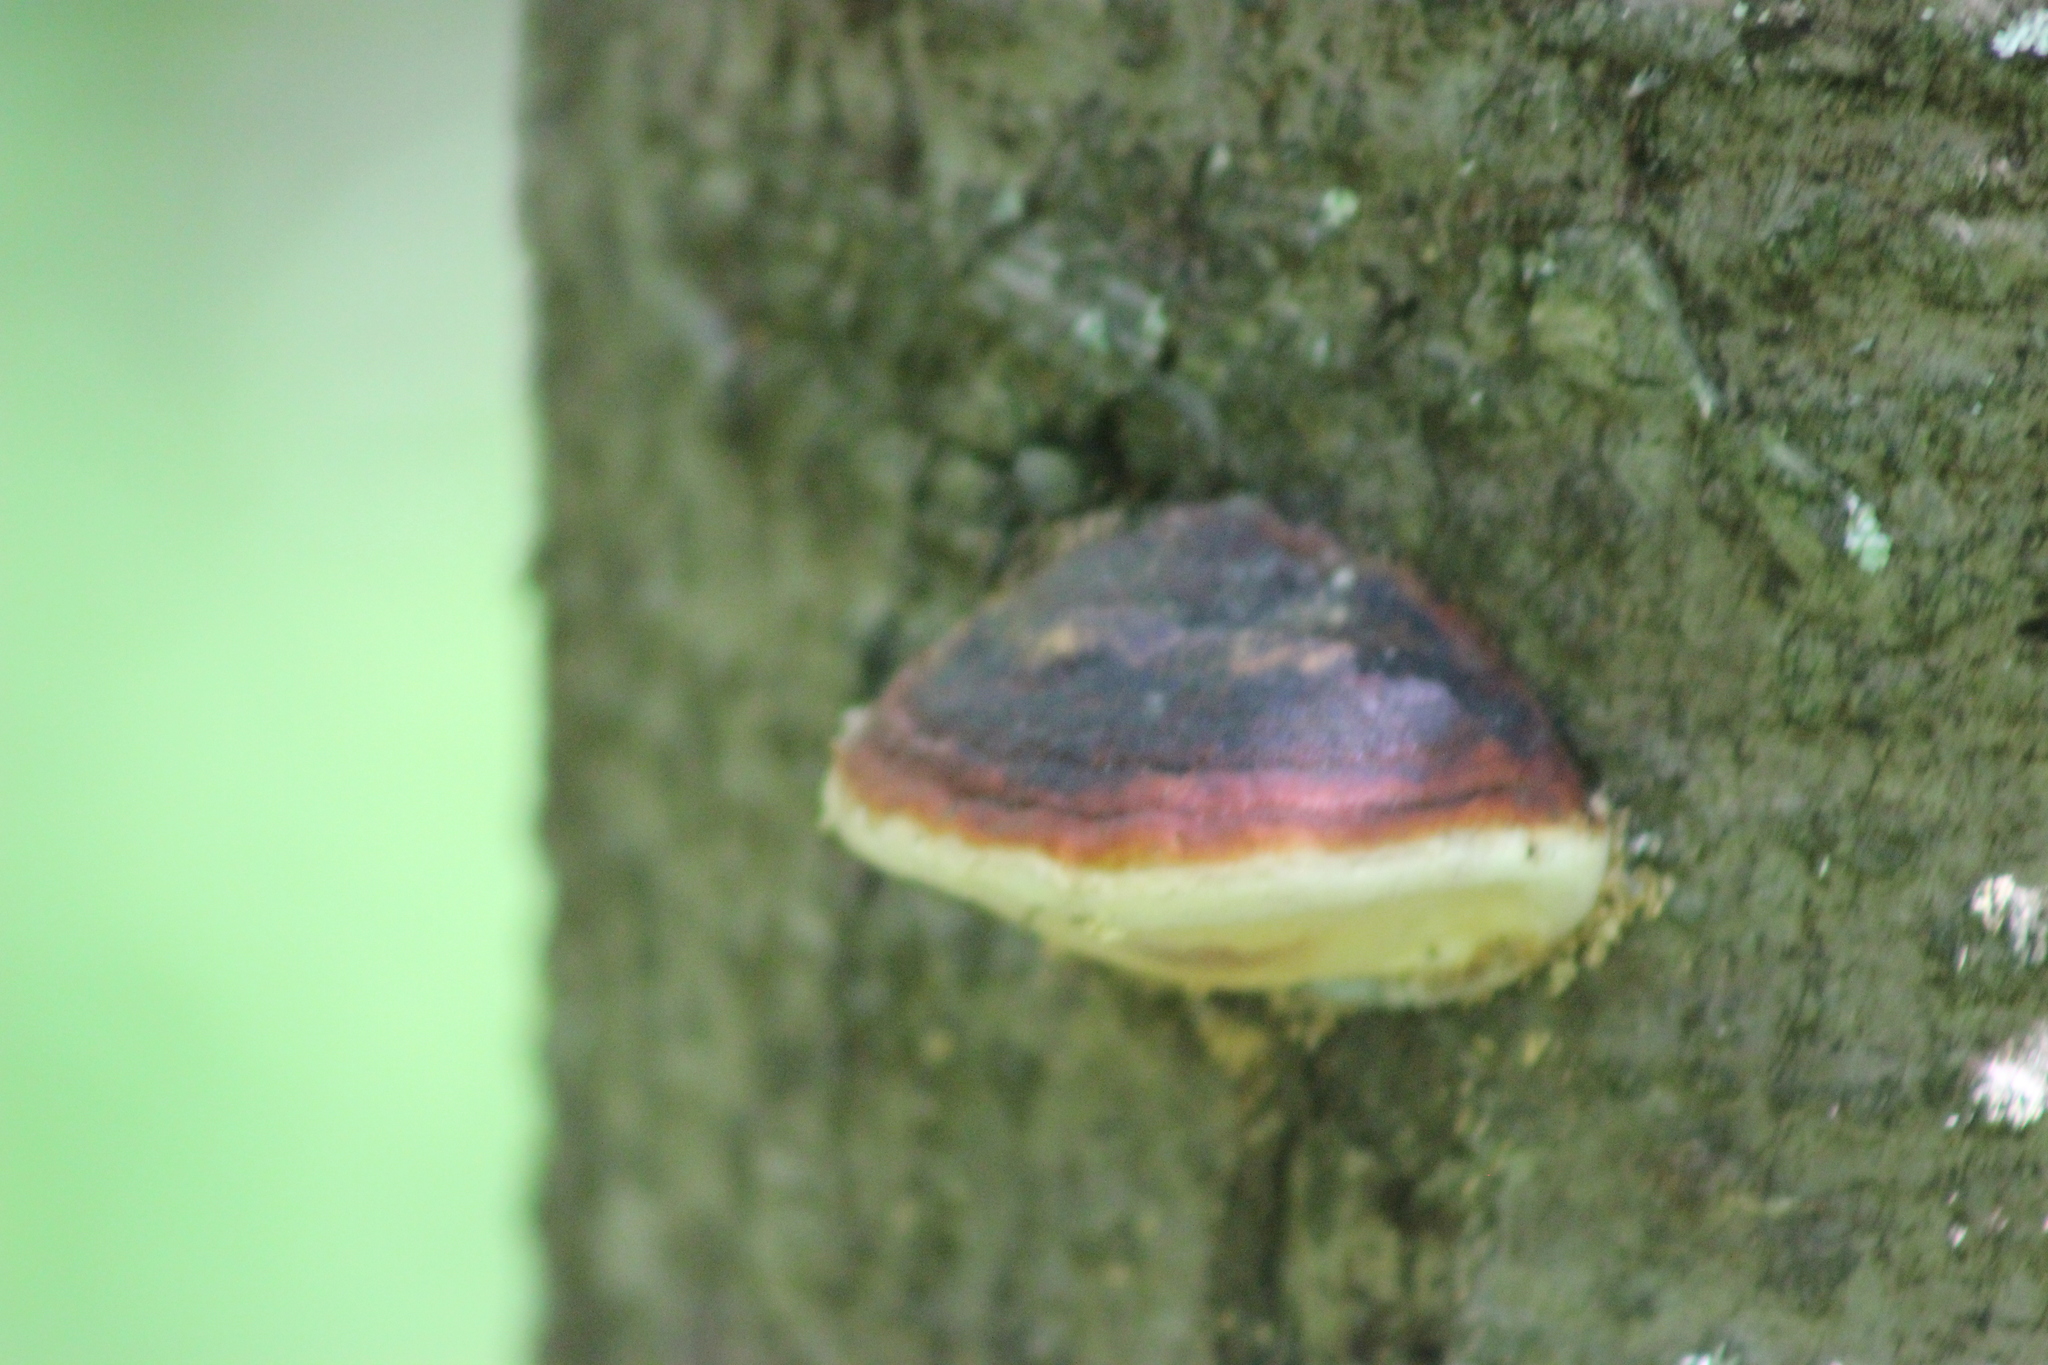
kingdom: Fungi
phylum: Basidiomycota
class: Agaricomycetes
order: Polyporales
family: Fomitopsidaceae
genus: Fomitopsis
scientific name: Fomitopsis pinicola
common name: Red-belted bracket
